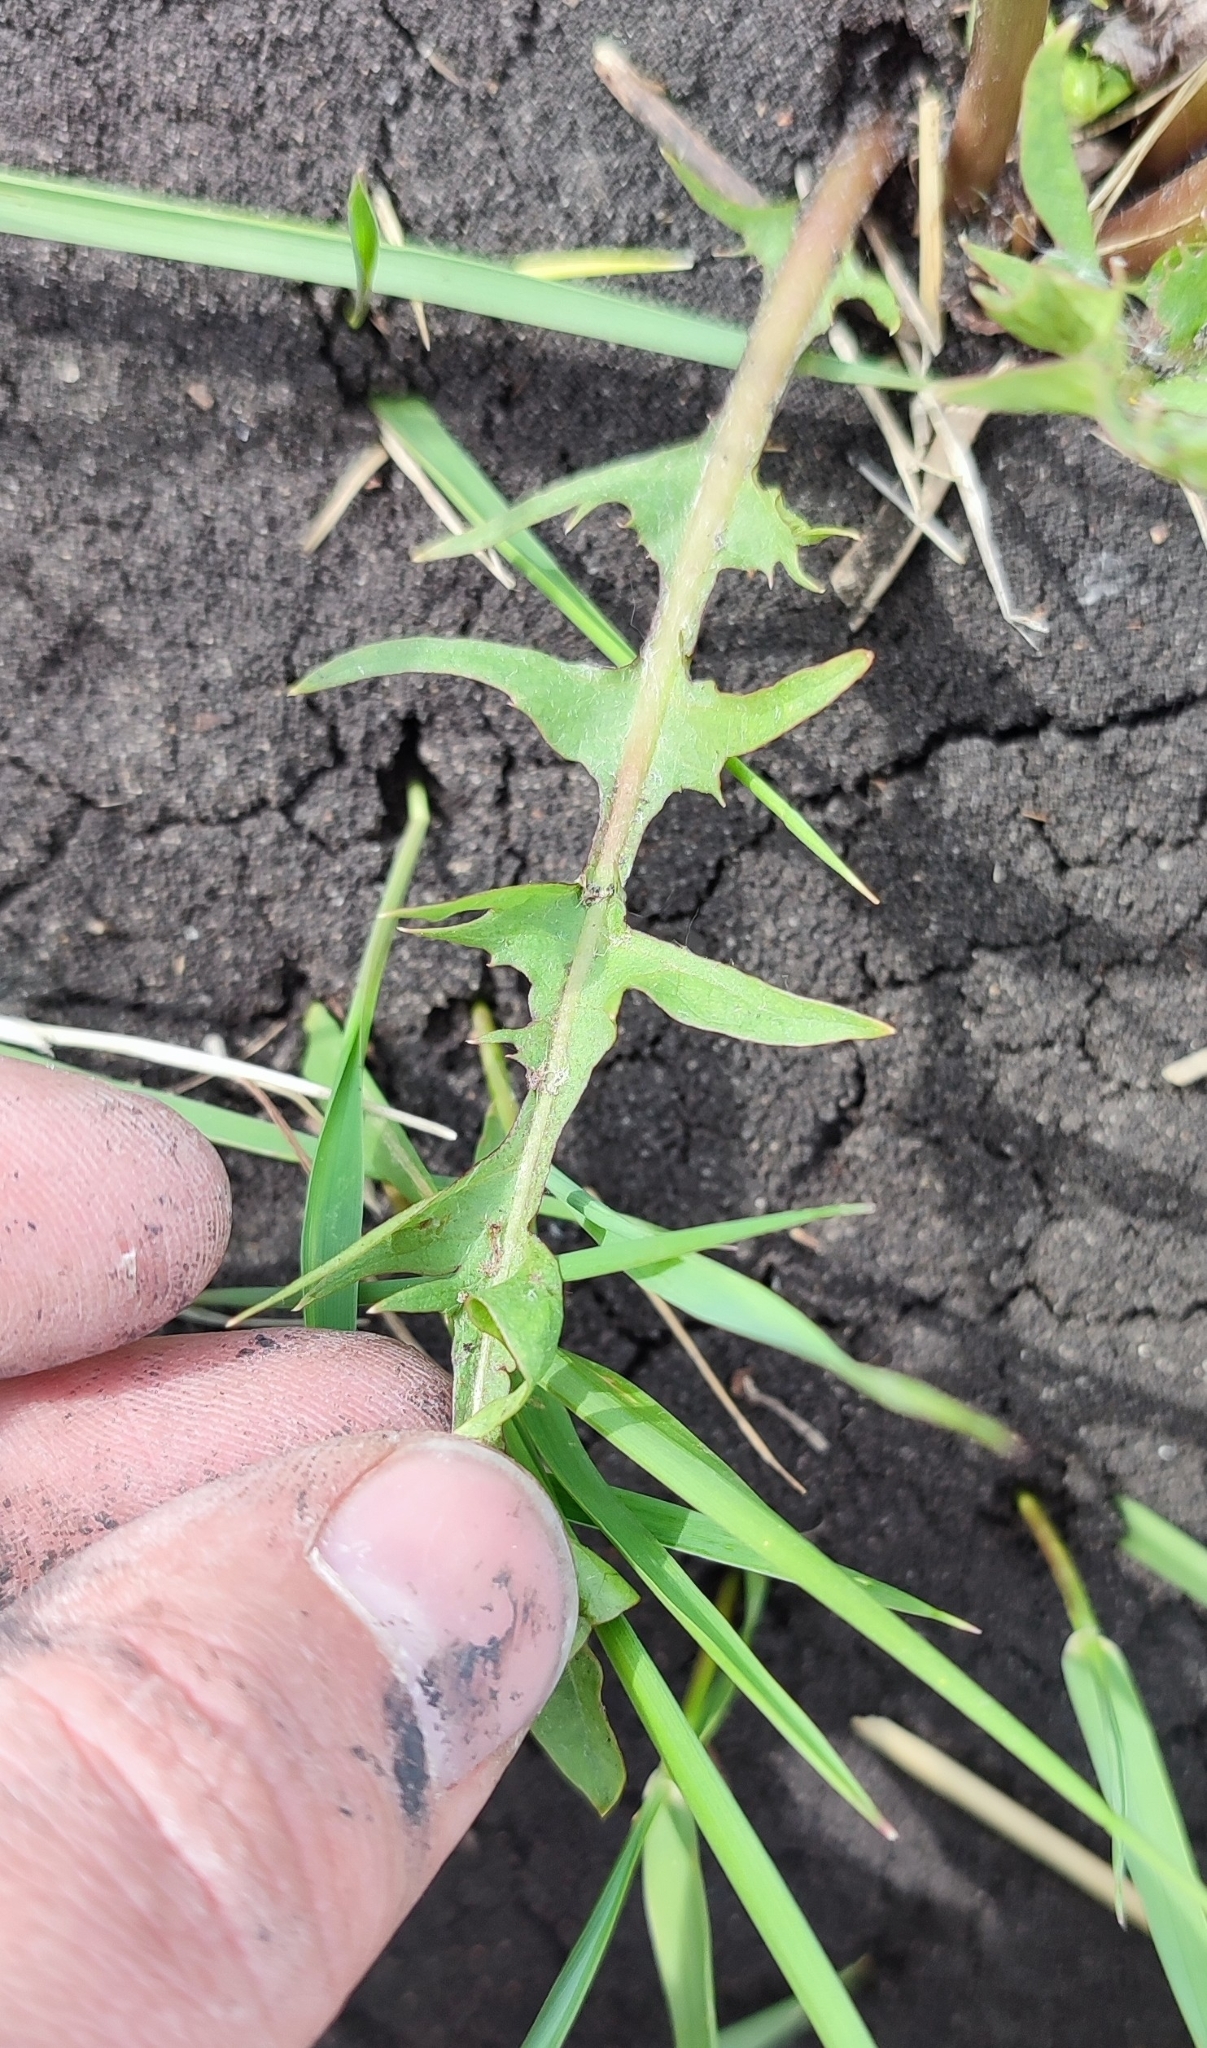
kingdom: Plantae
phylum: Tracheophyta
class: Magnoliopsida
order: Asterales
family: Asteraceae
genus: Taraxacum
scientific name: Taraxacum scariosum
